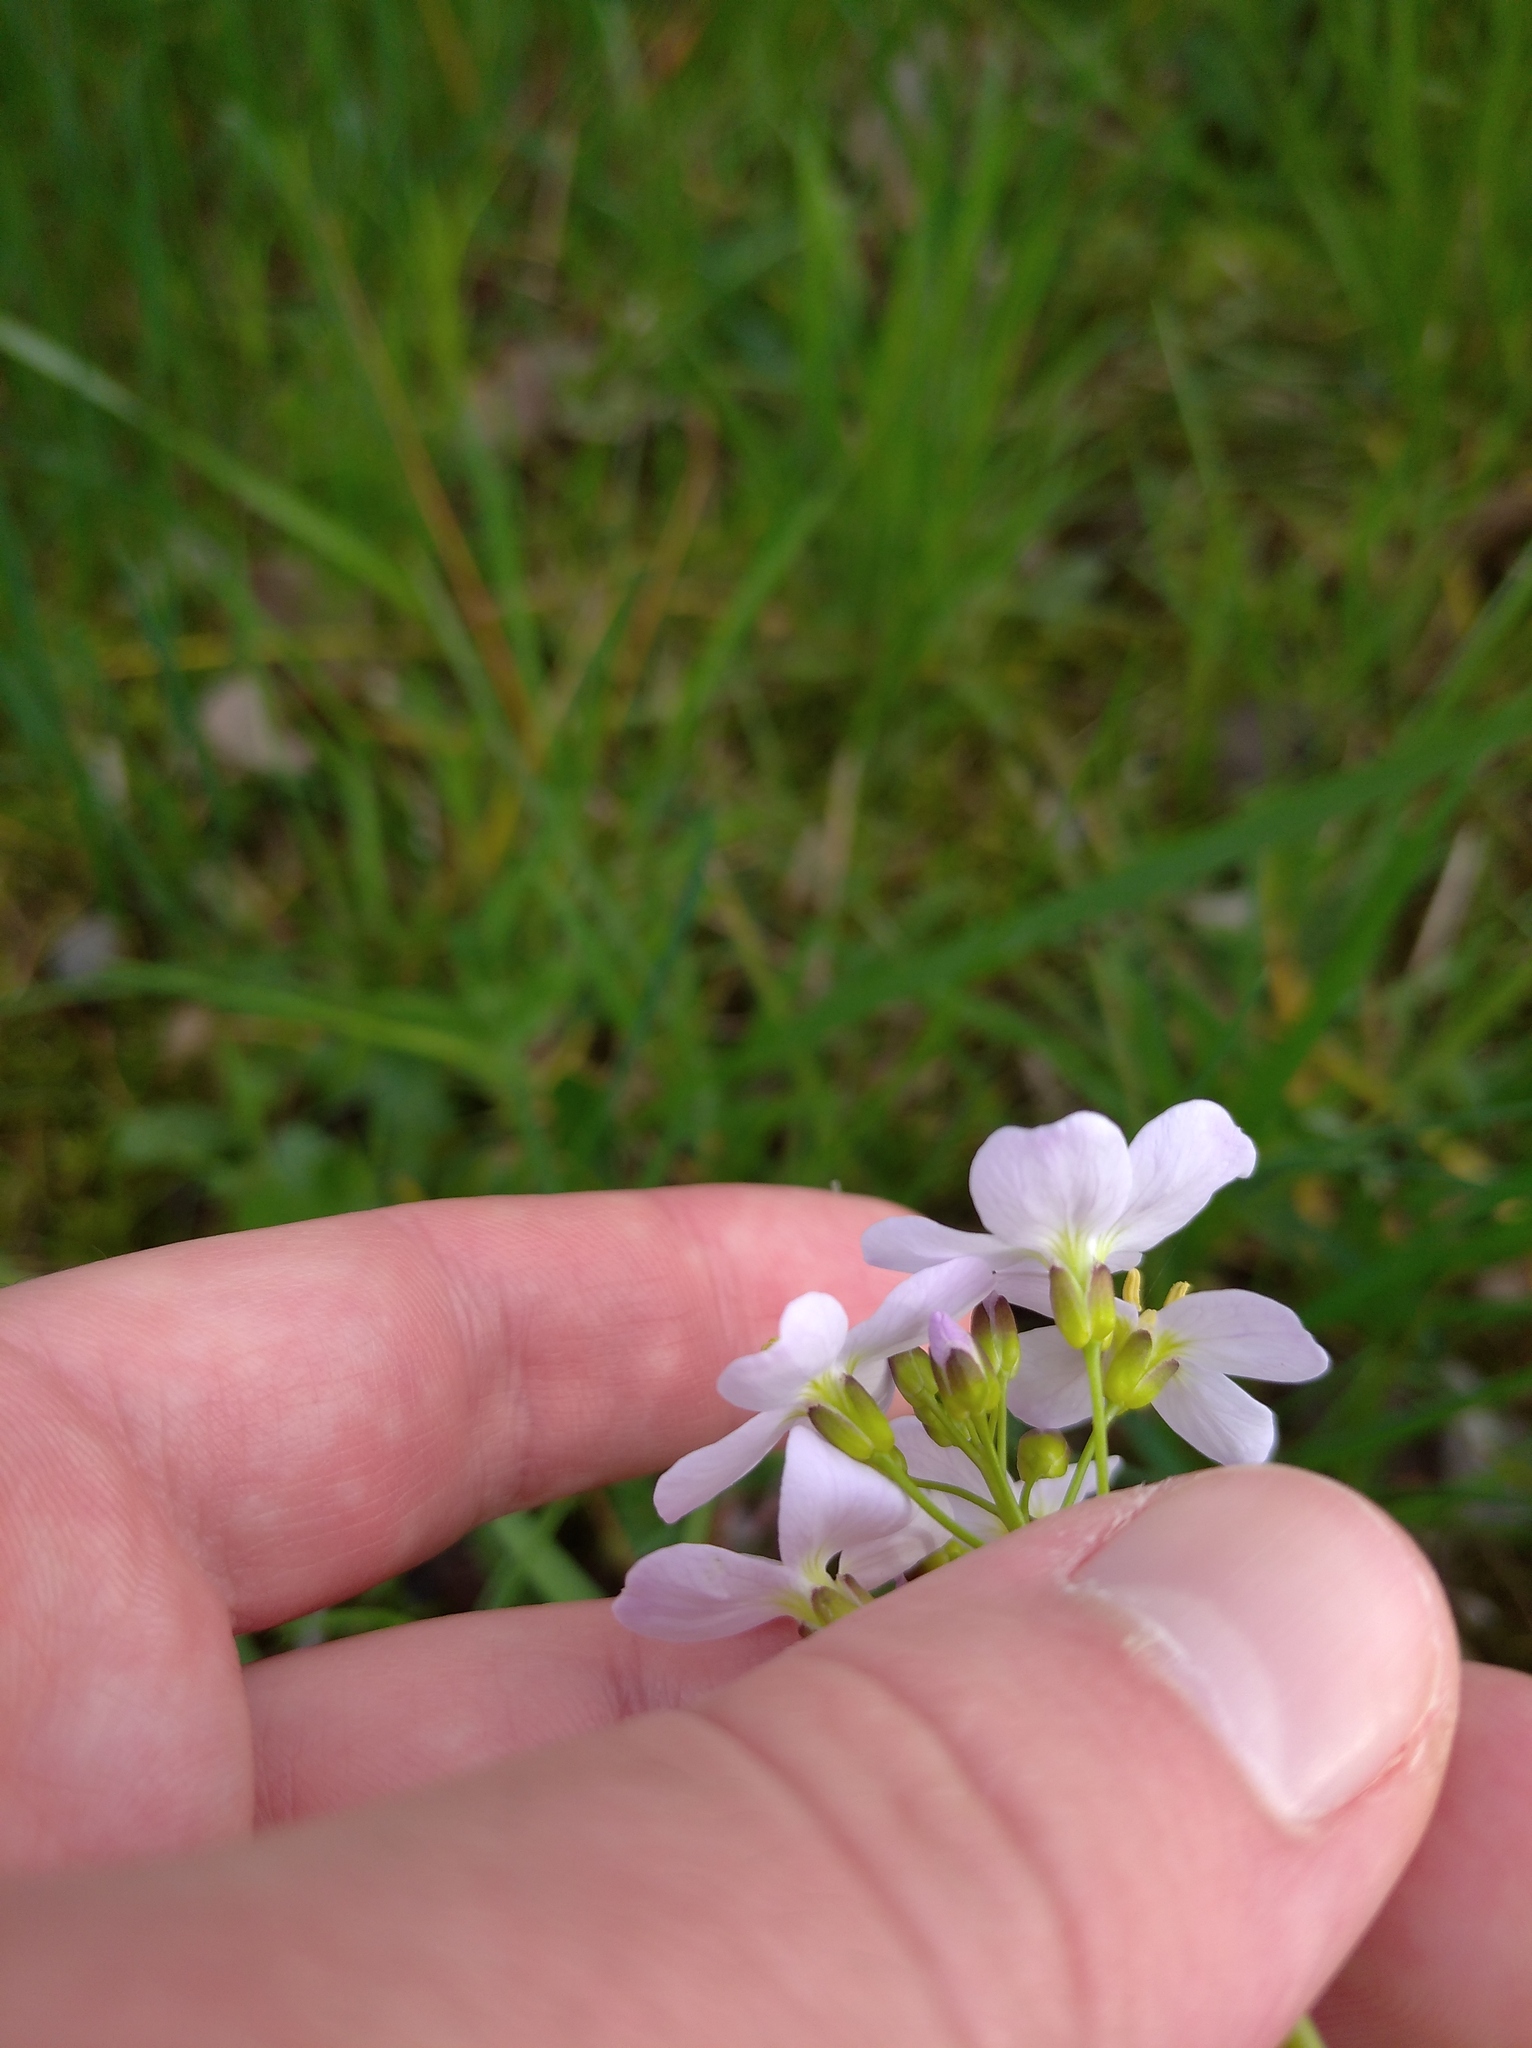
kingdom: Plantae
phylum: Tracheophyta
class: Magnoliopsida
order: Brassicales
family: Brassicaceae
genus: Cardamine
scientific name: Cardamine pratensis
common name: Cuckoo flower
